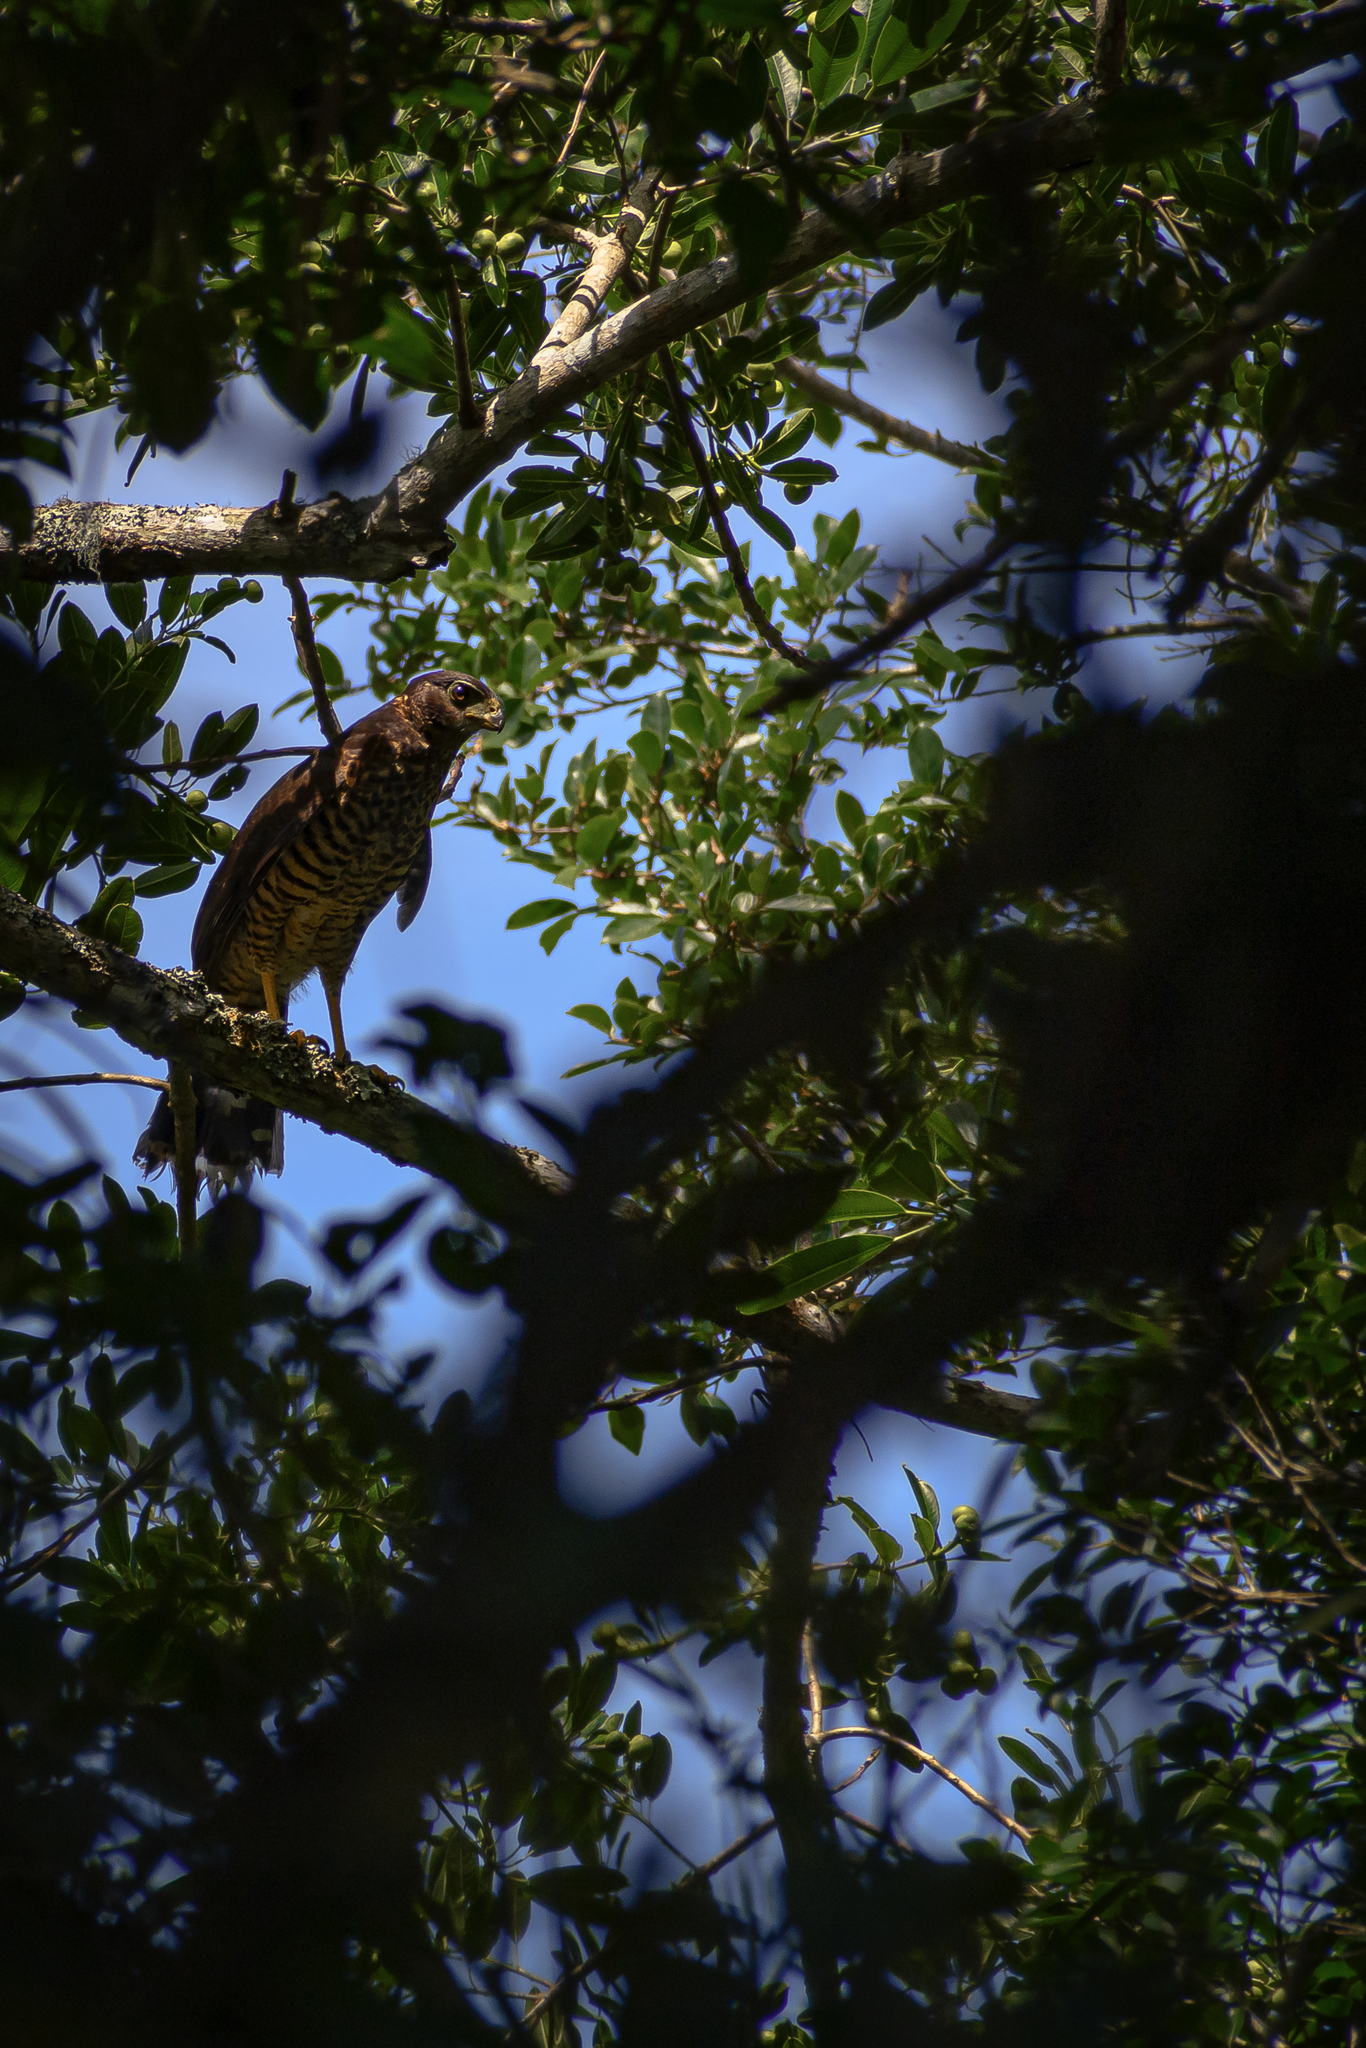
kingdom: Animalia
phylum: Chordata
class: Aves
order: Falconiformes
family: Falconidae
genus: Micrastur
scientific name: Micrastur semitorquatus
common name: Collared forest-falcon
